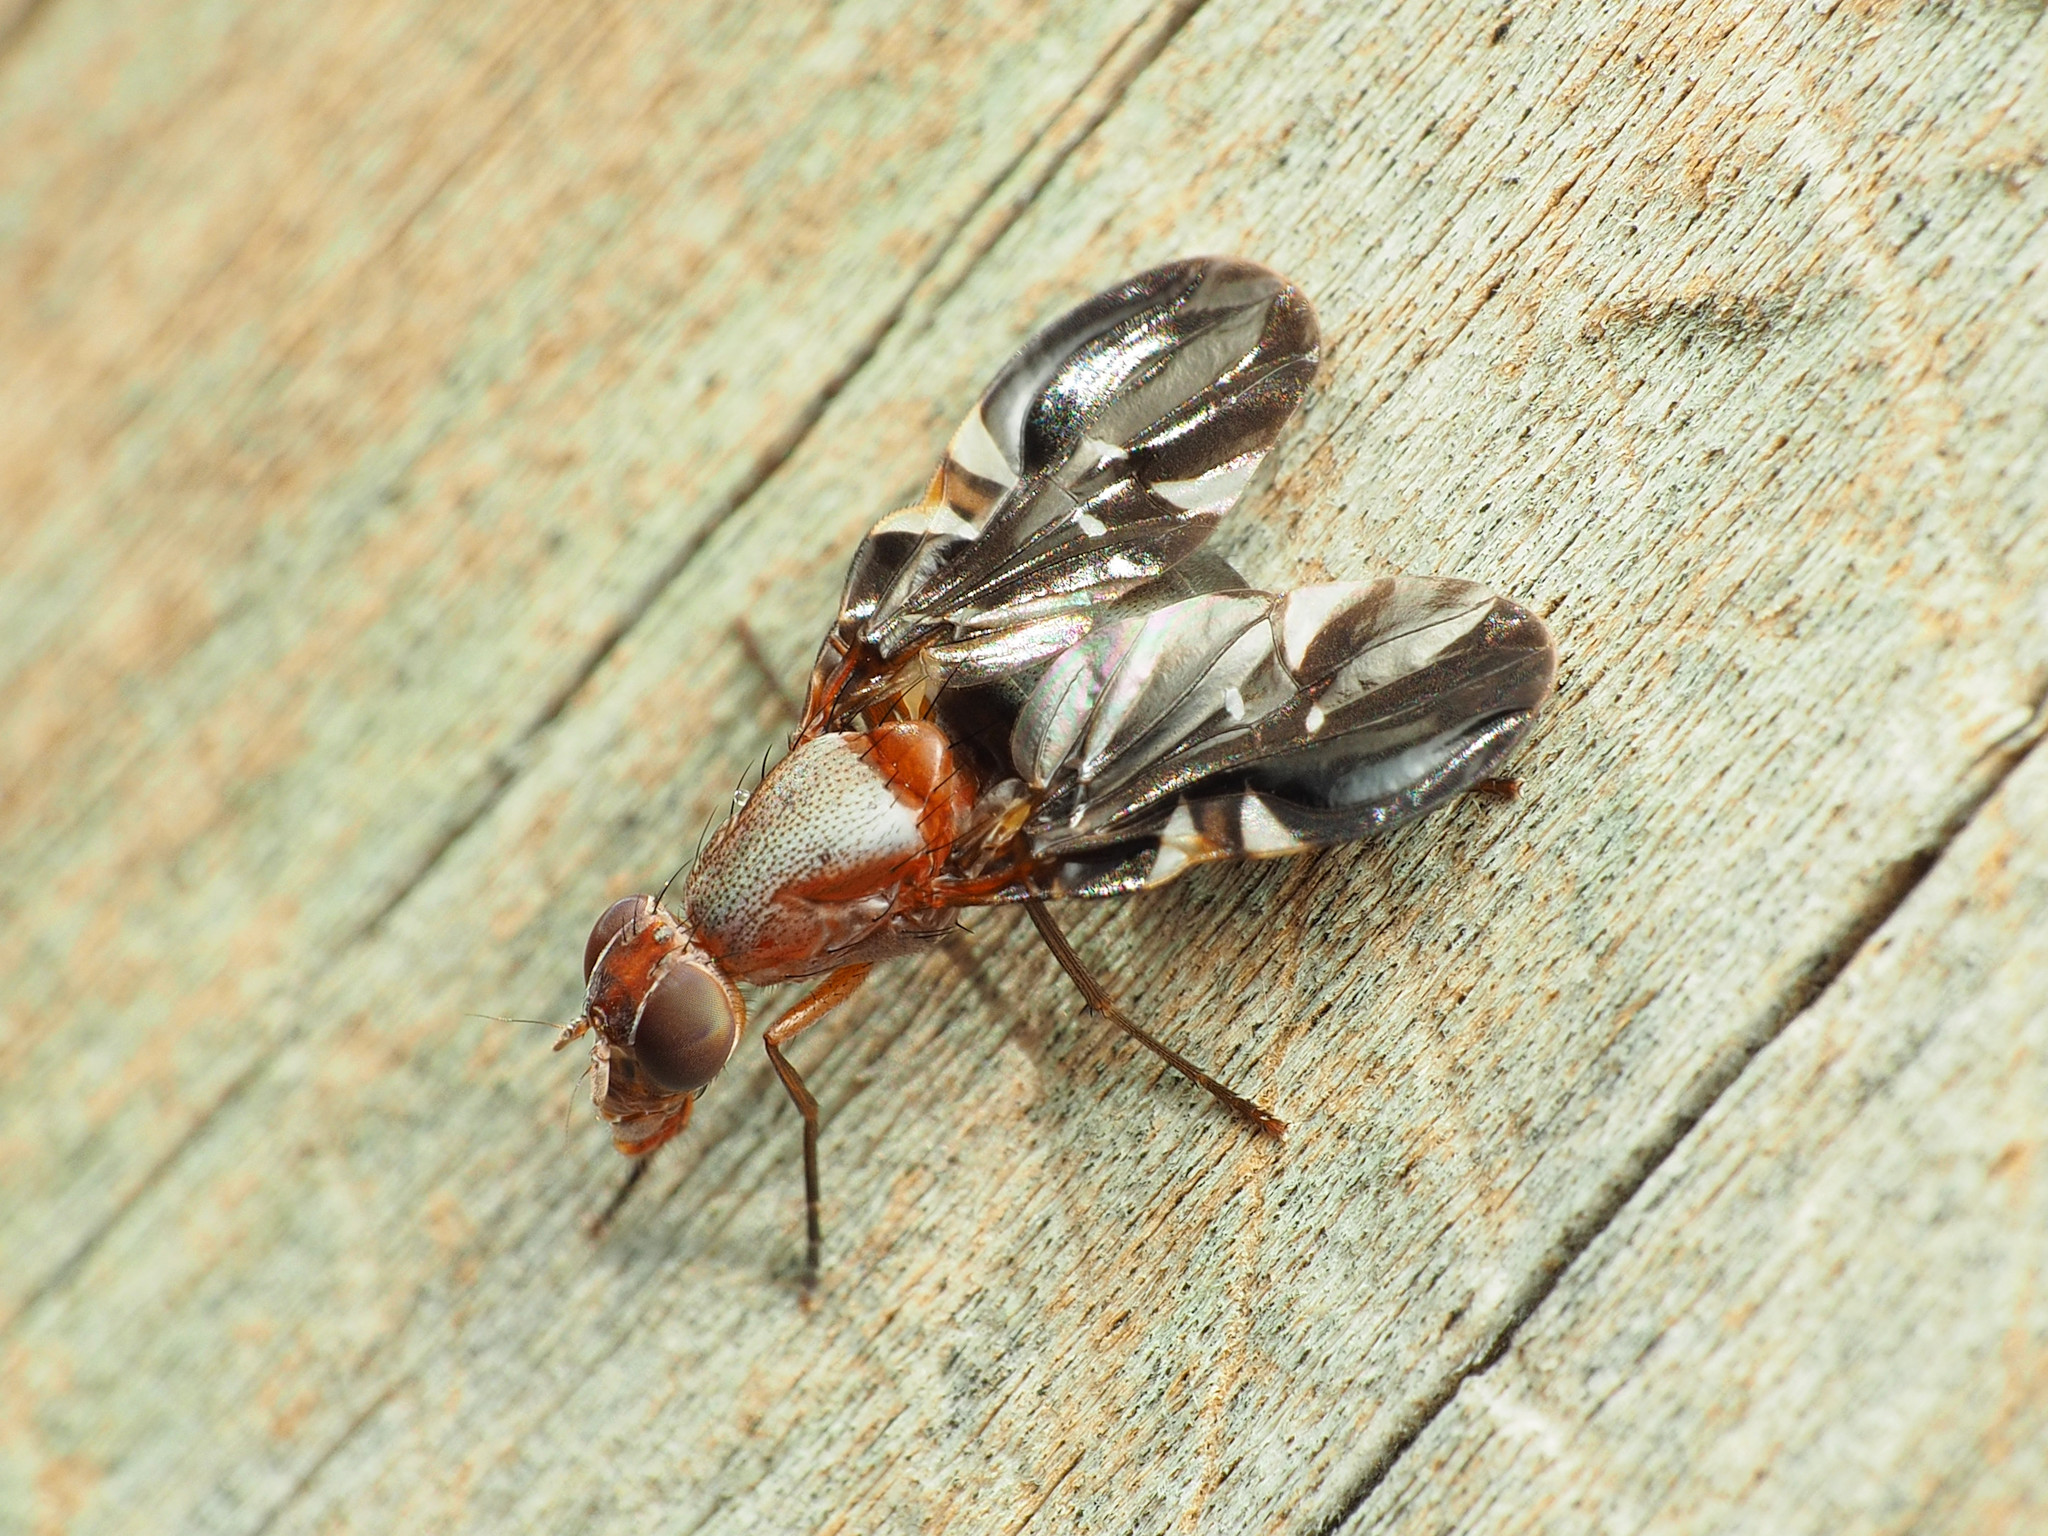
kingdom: Animalia
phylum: Arthropoda
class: Insecta
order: Diptera
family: Ulidiidae
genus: Delphinia
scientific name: Delphinia picta
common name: Common picture-winged fly
